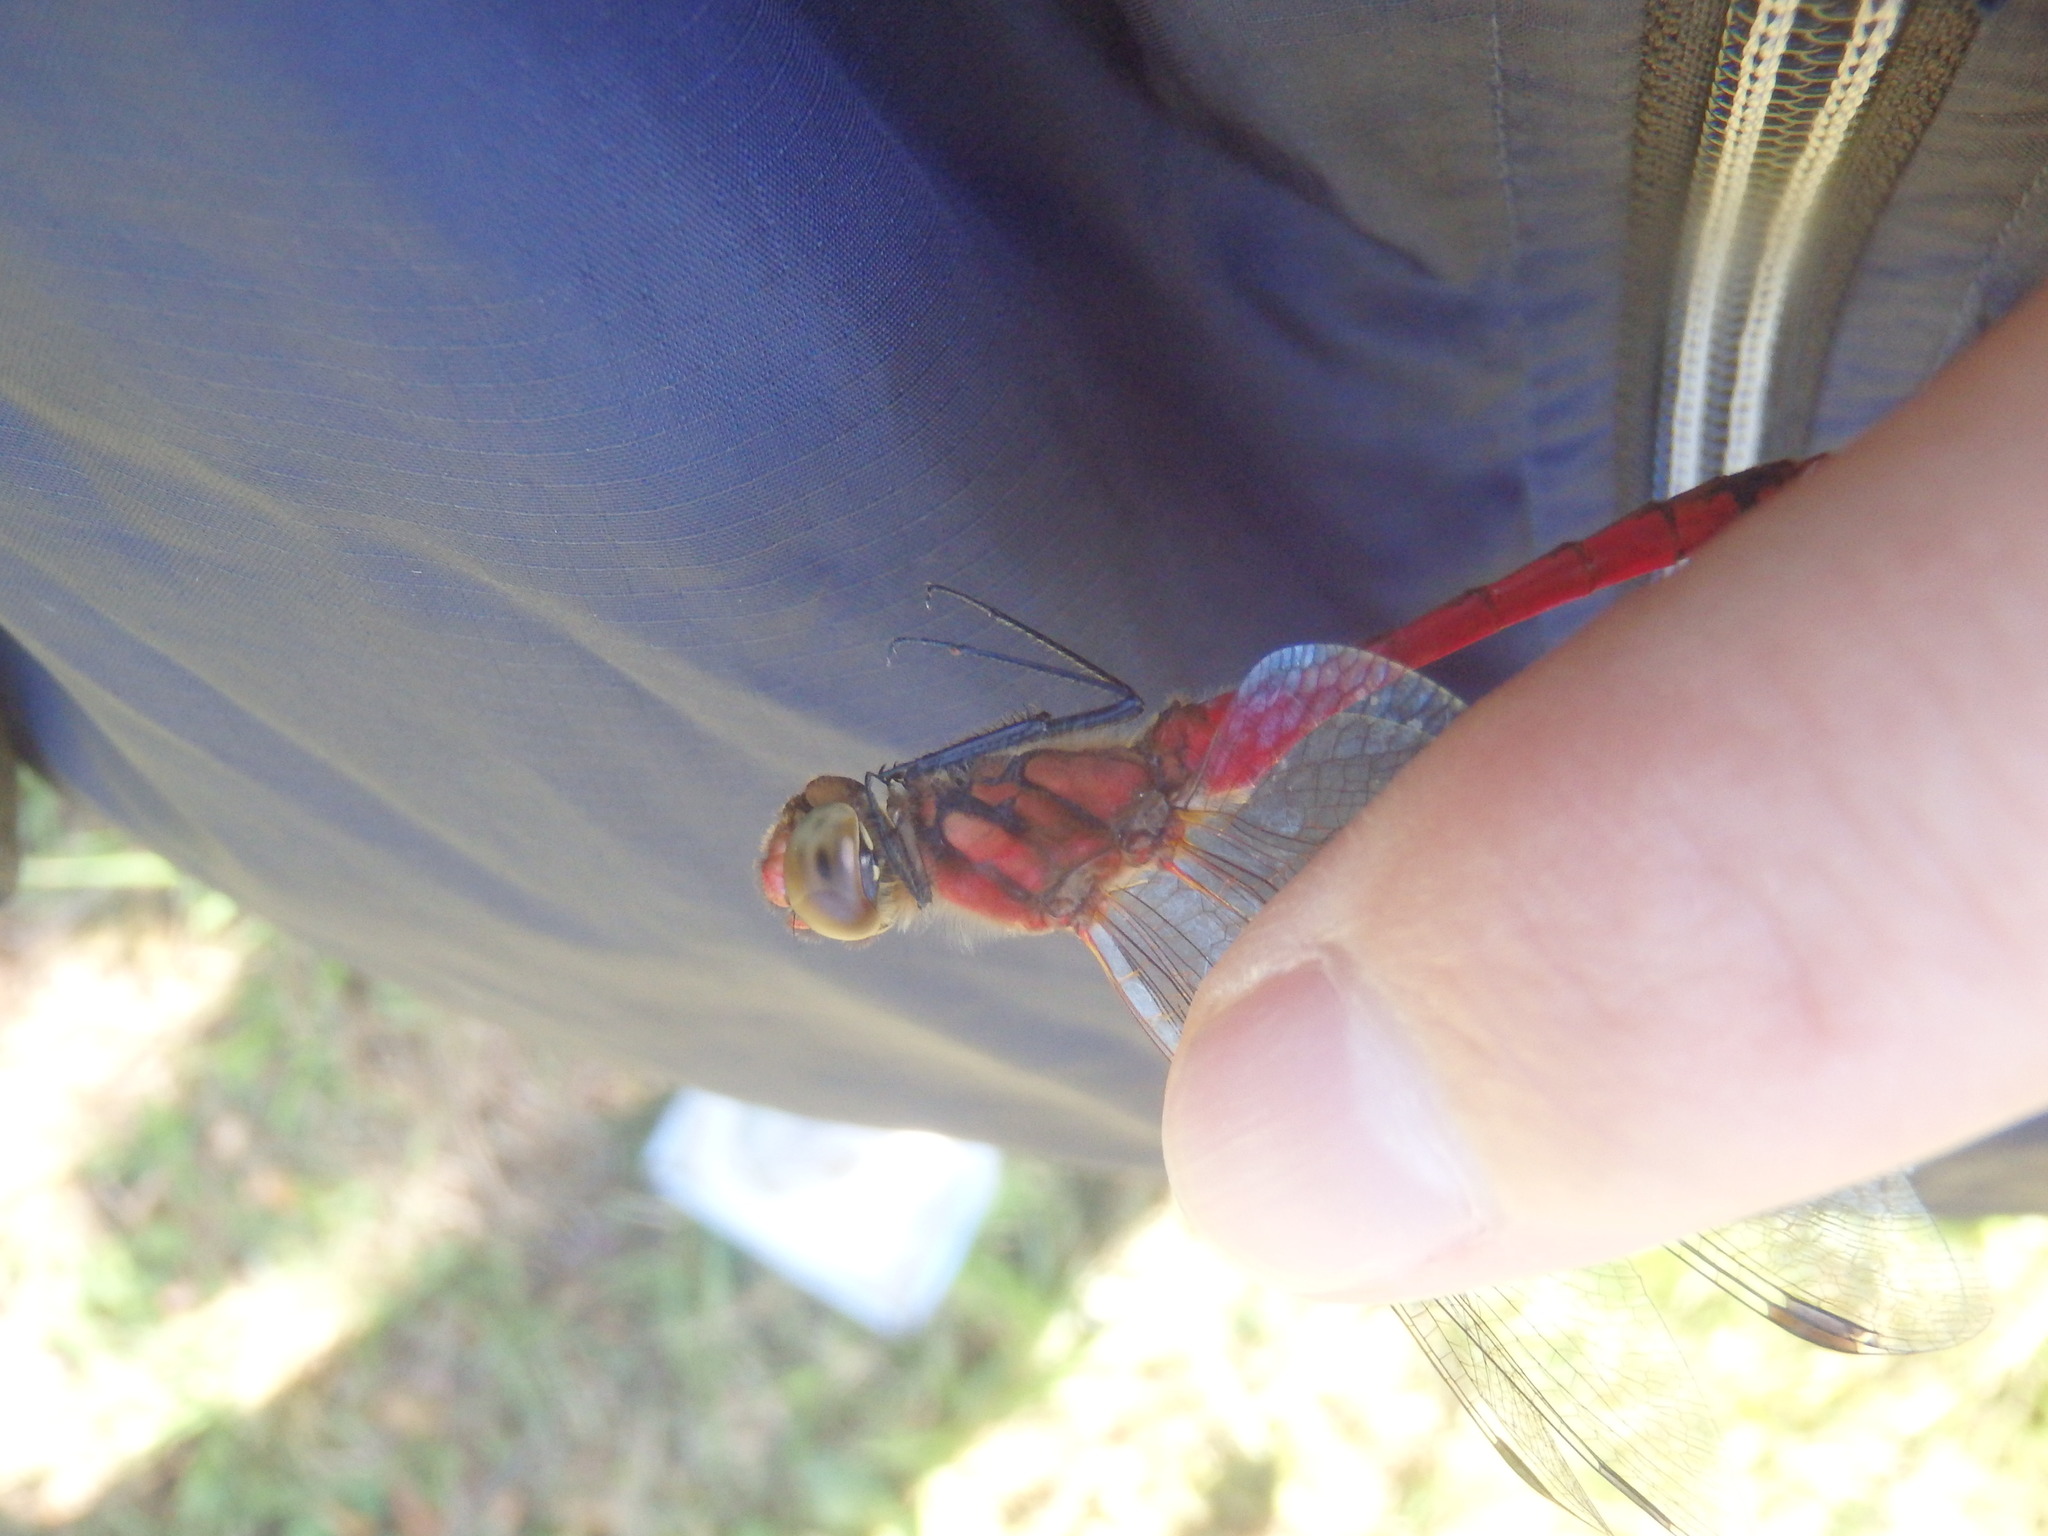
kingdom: Animalia
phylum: Arthropoda
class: Insecta
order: Odonata
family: Libellulidae
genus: Sympetrum
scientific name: Sympetrum darwinianum
